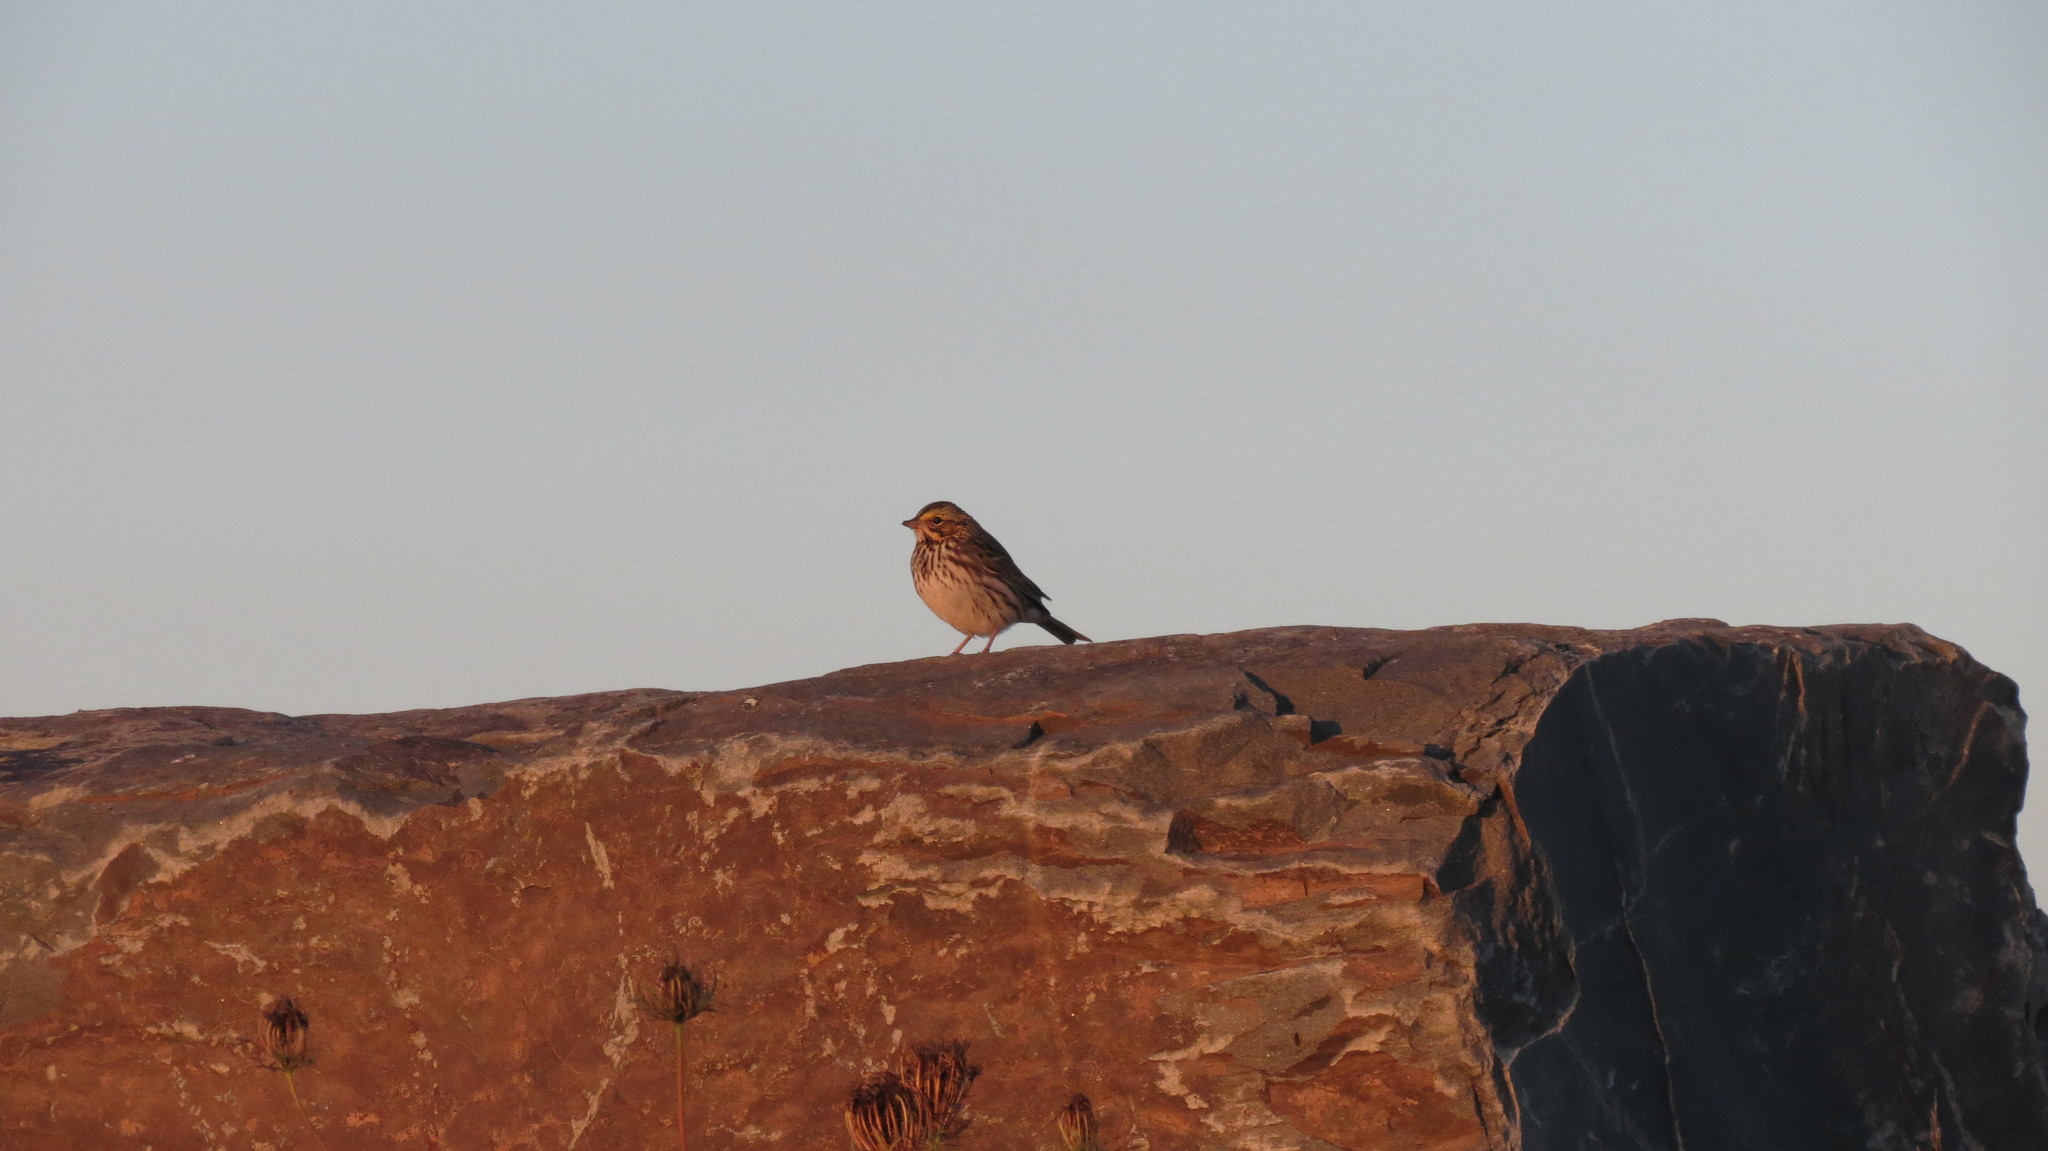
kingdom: Animalia
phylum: Chordata
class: Aves
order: Passeriformes
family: Passerellidae
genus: Passerculus
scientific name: Passerculus sandwichensis
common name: Savannah sparrow
